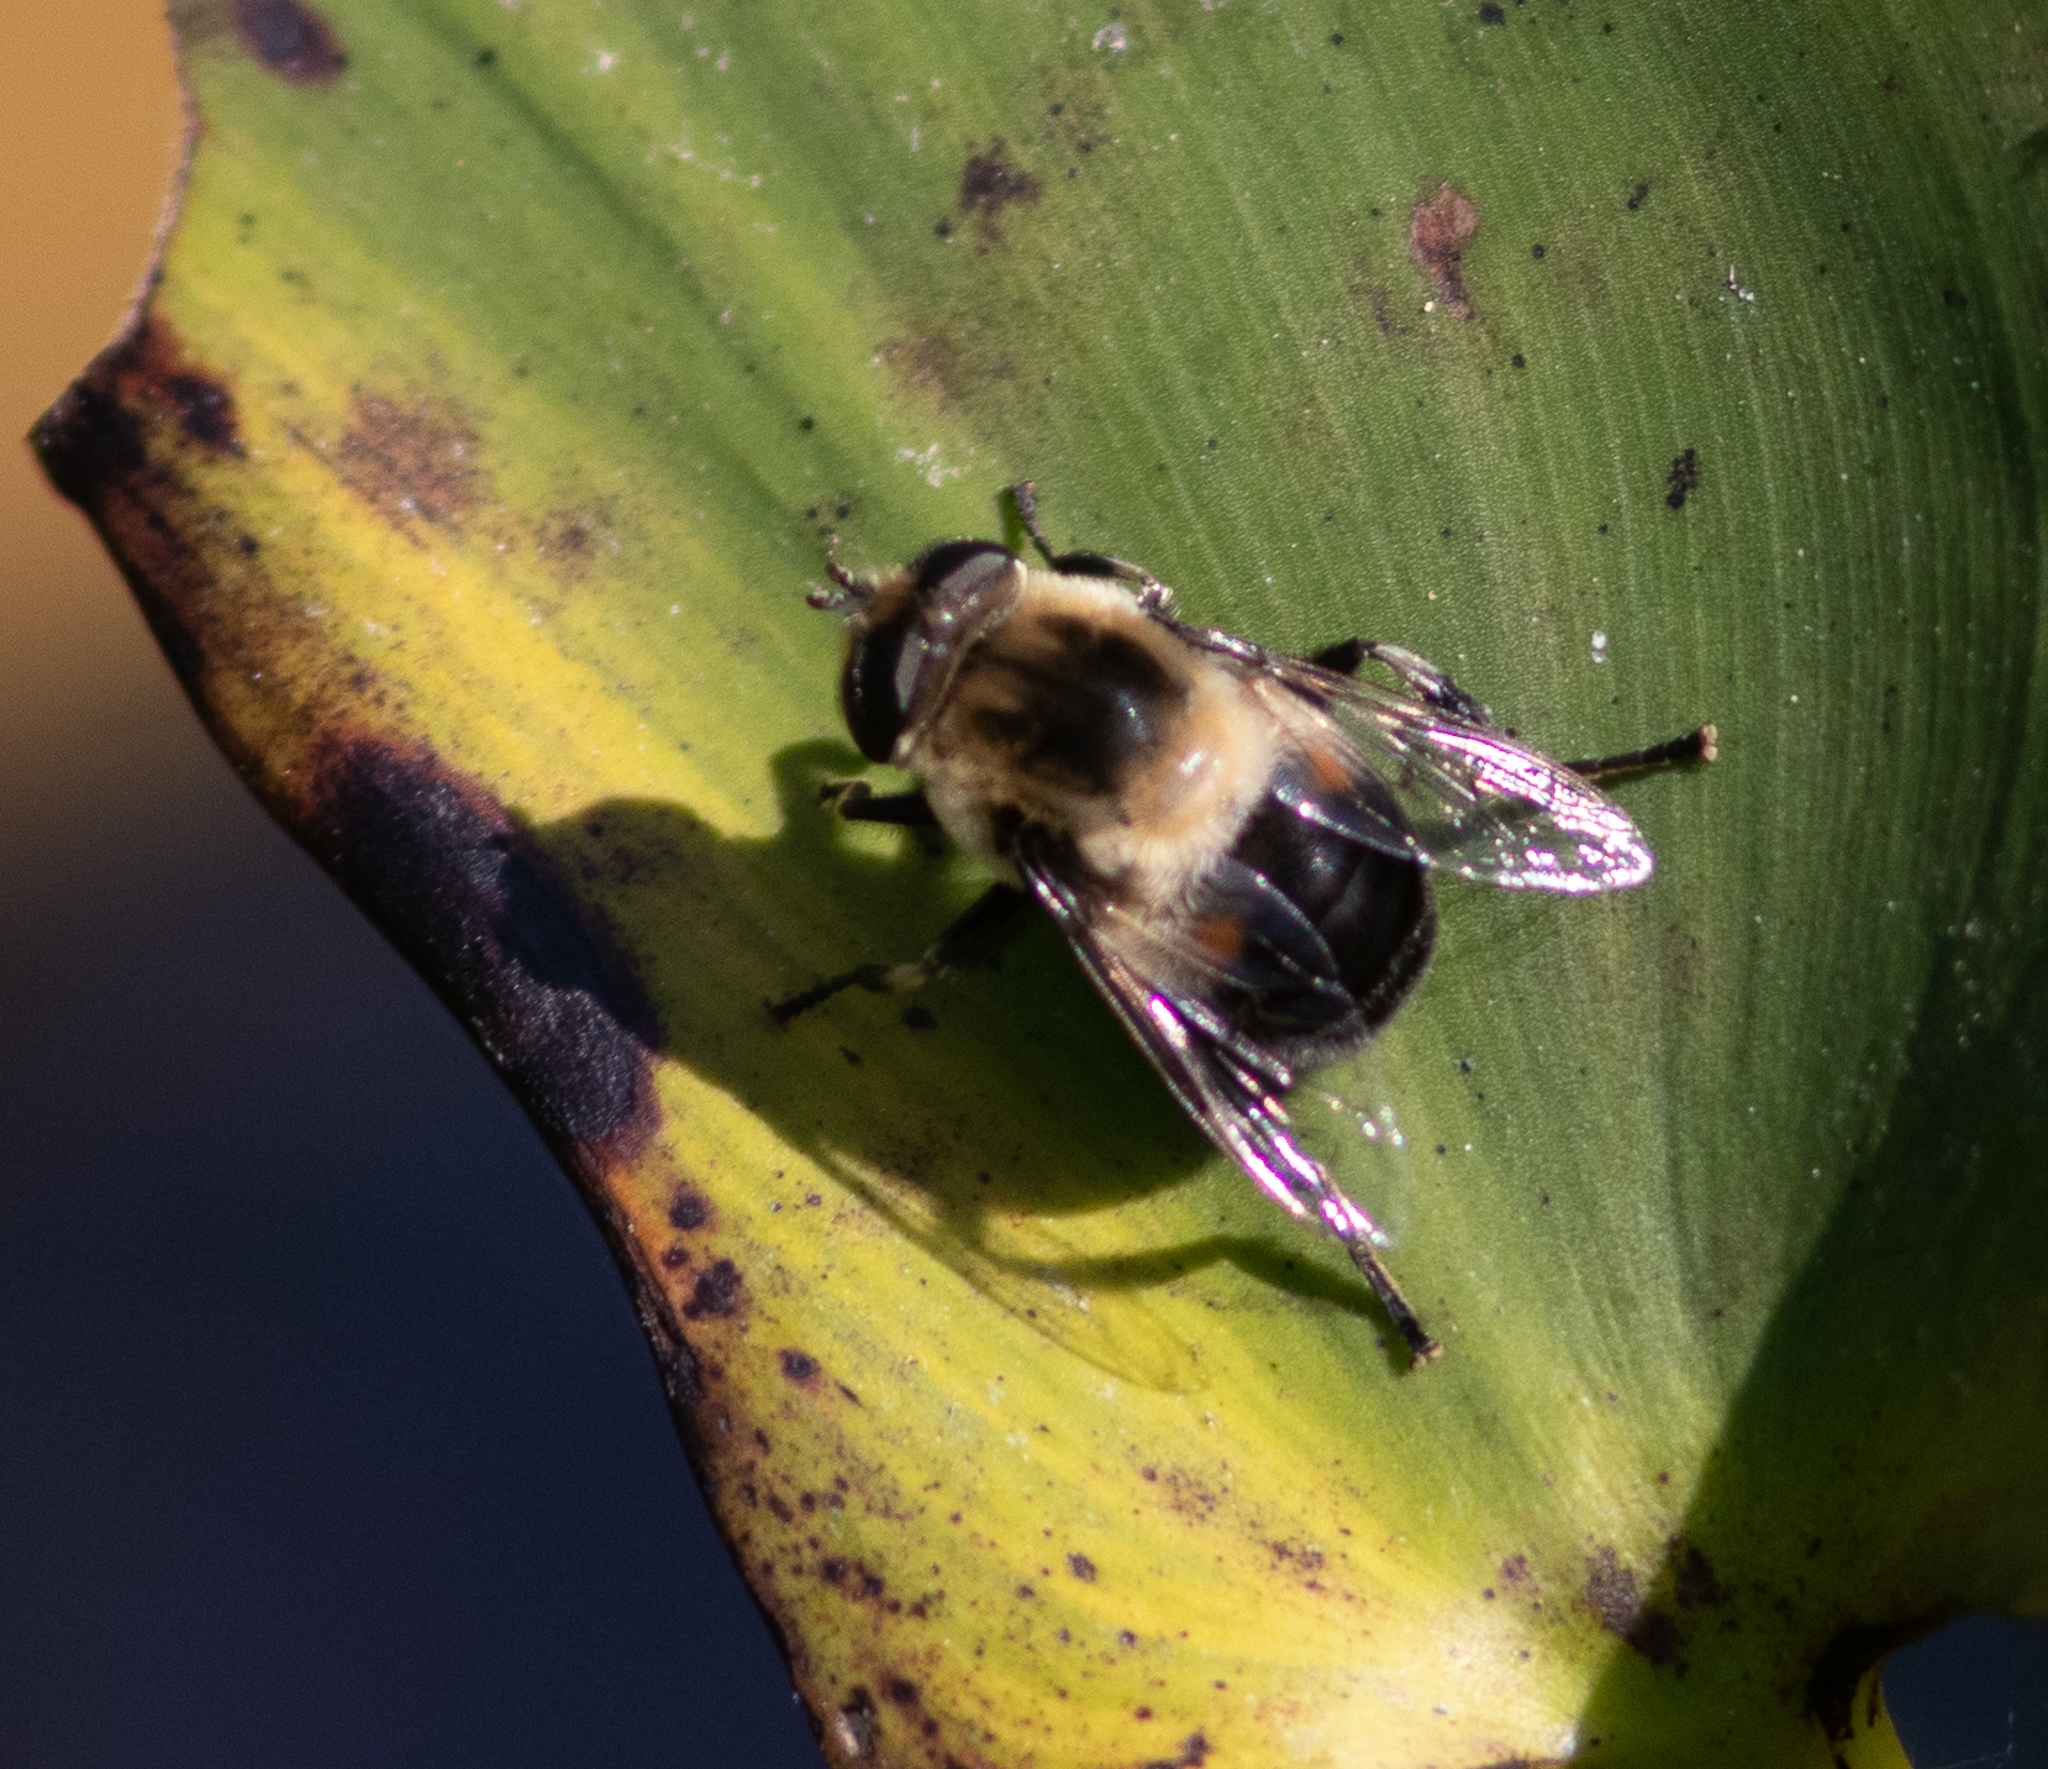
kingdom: Animalia
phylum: Arthropoda
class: Insecta
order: Diptera
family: Syrphidae
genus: Eristalis
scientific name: Eristalis anthophorina
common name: Orange-spotted drone fly
